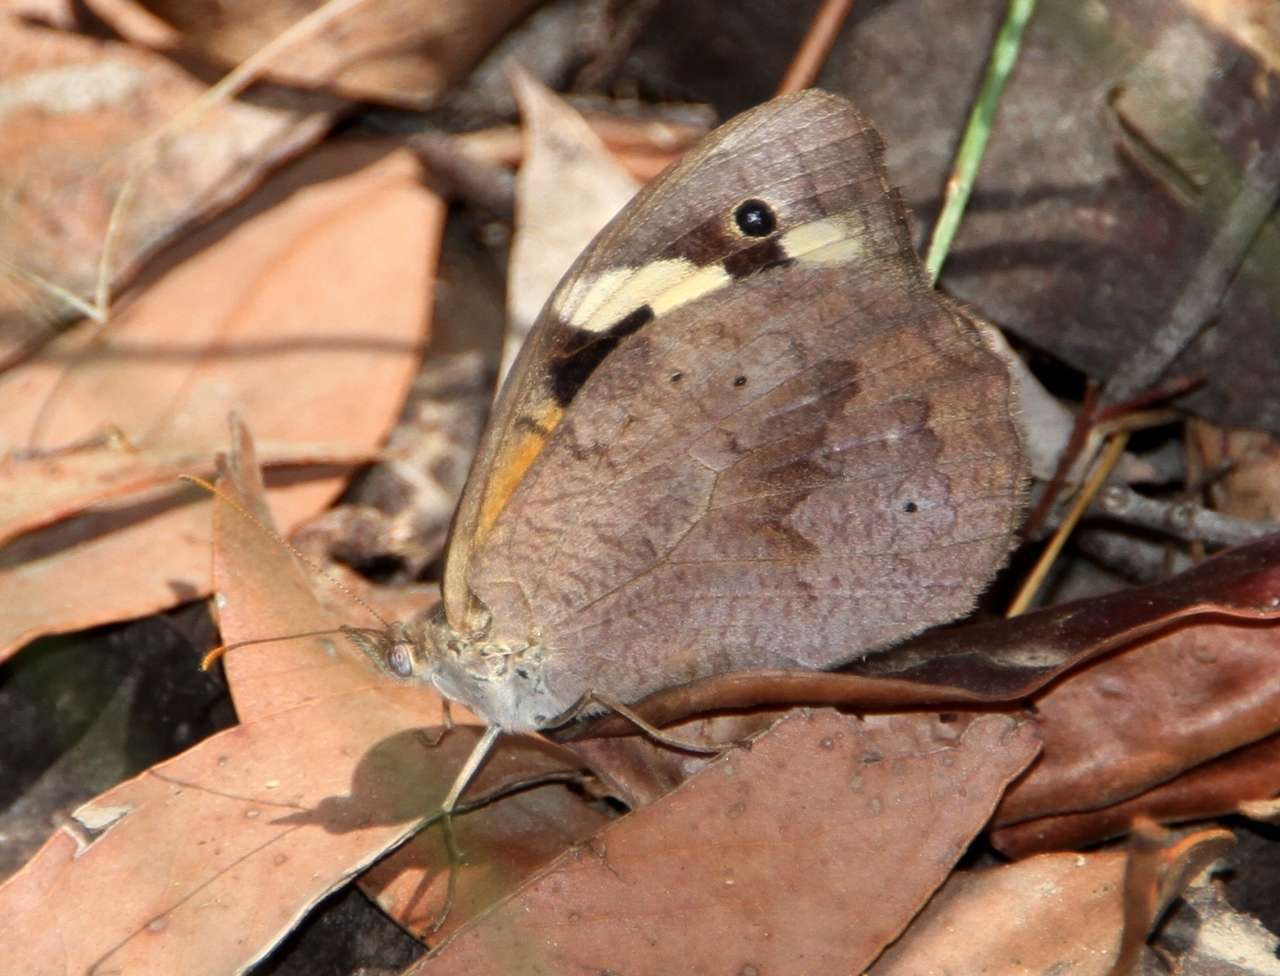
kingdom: Animalia
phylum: Arthropoda
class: Insecta
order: Lepidoptera
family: Nymphalidae
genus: Heteronympha
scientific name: Heteronympha merope
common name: Common brown
